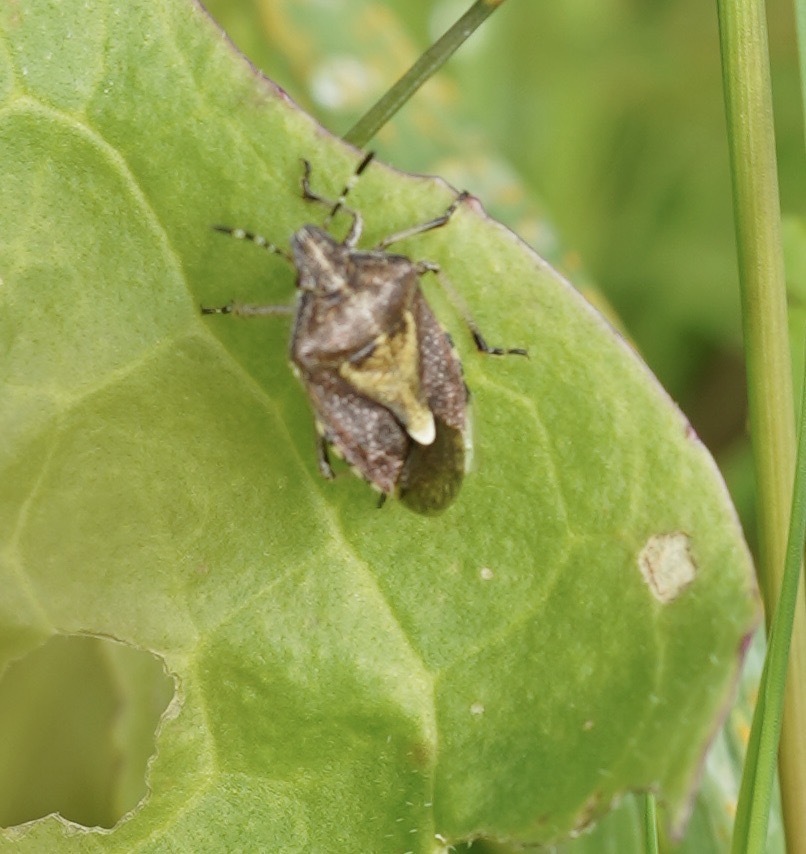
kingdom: Animalia
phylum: Arthropoda
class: Insecta
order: Hemiptera
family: Pentatomidae
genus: Dolycoris
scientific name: Dolycoris baccarum
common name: Sloe bug
